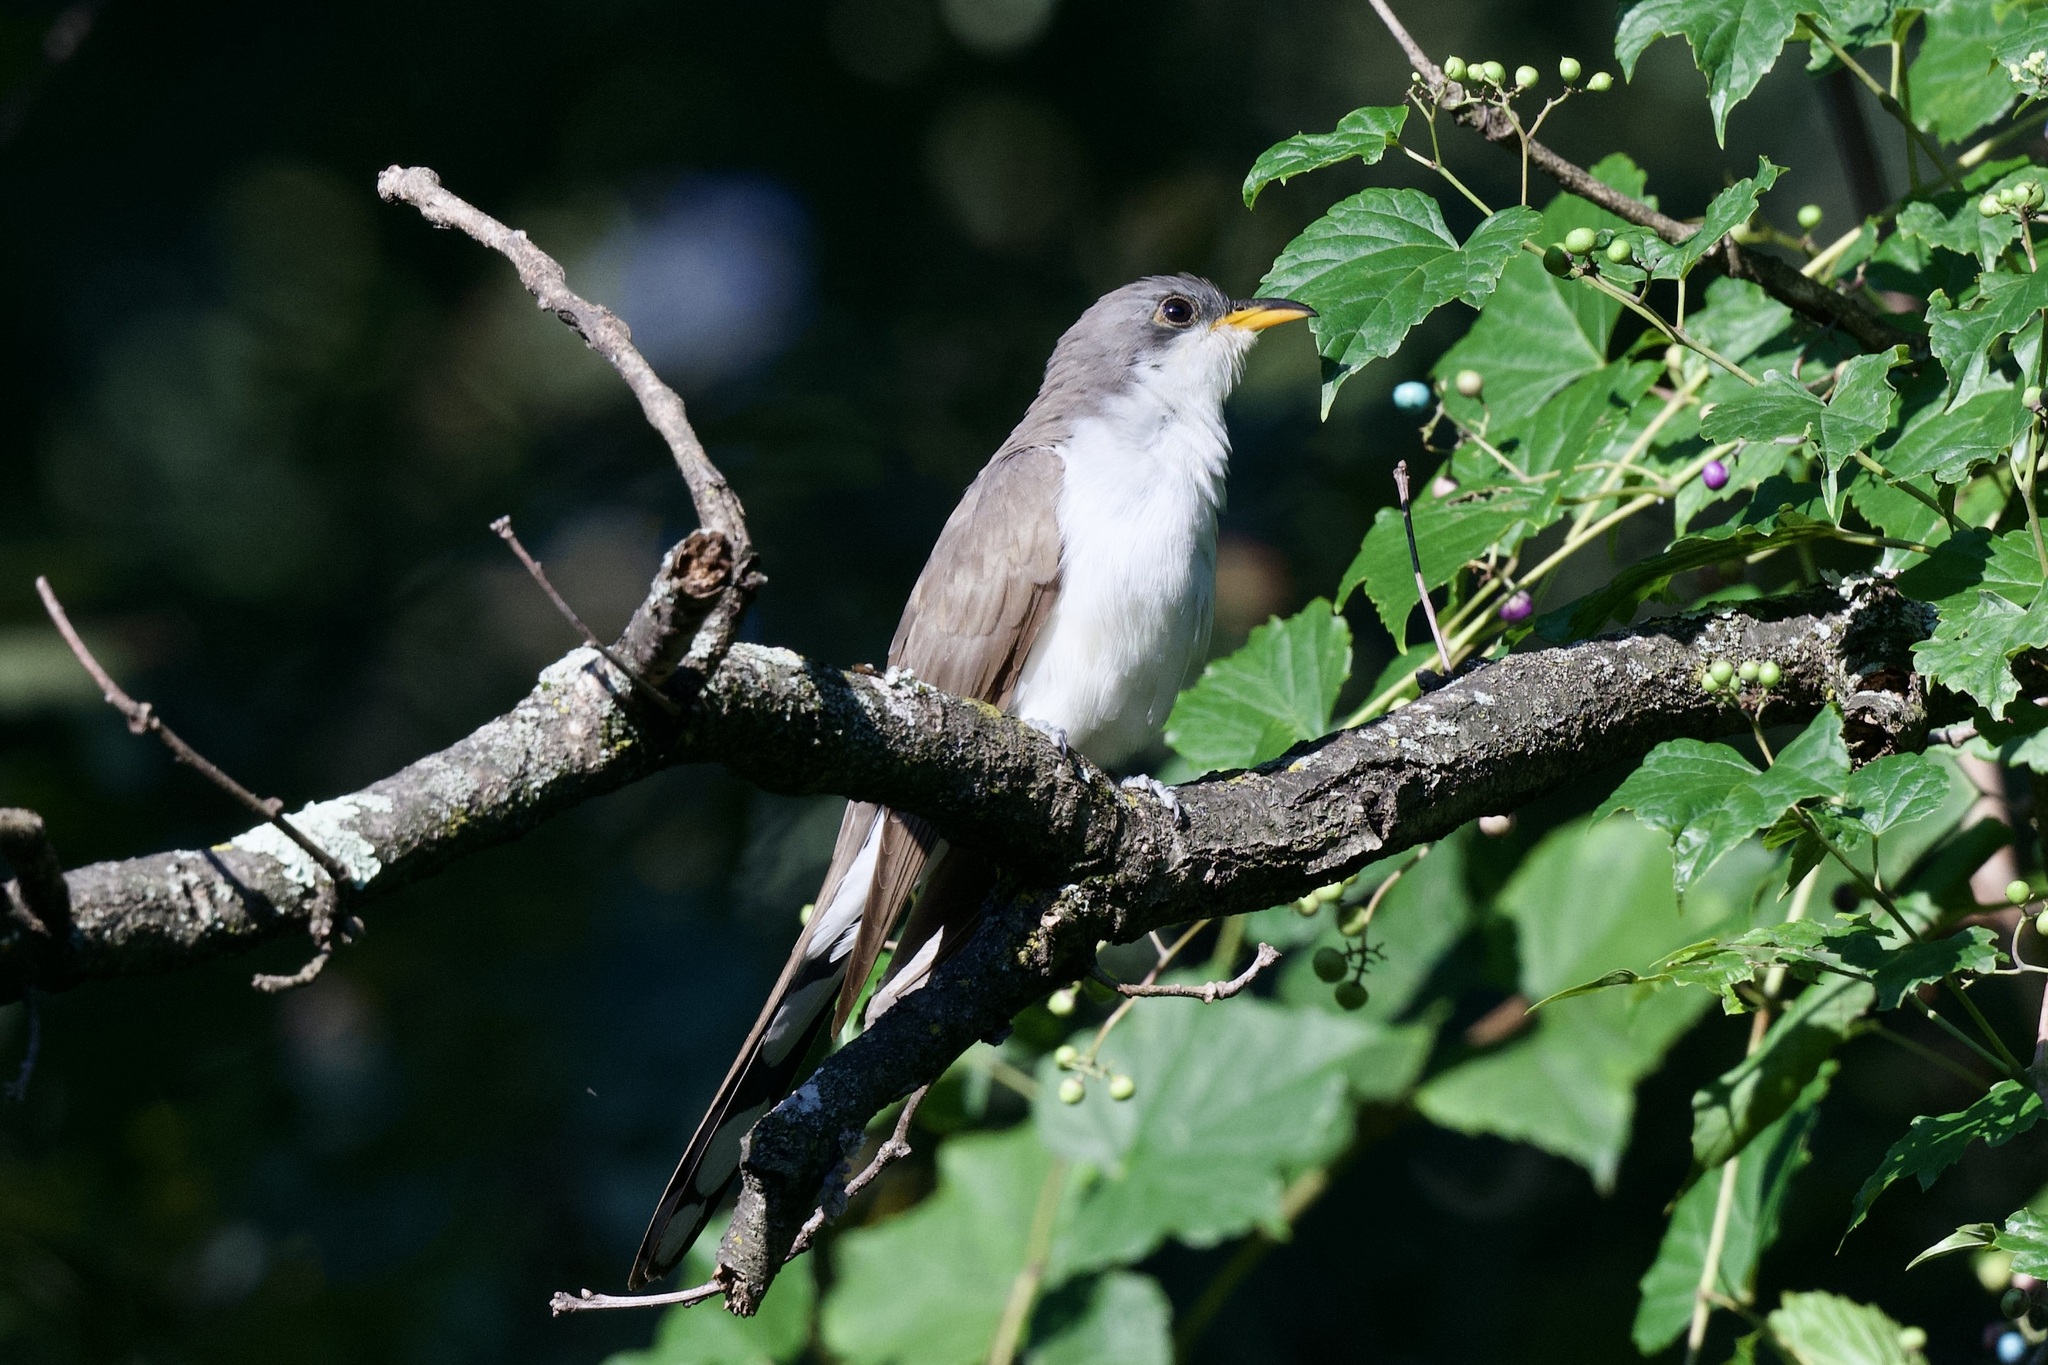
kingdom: Animalia
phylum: Chordata
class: Aves
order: Cuculiformes
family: Cuculidae
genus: Coccyzus
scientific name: Coccyzus americanus
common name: Yellow-billed cuckoo
